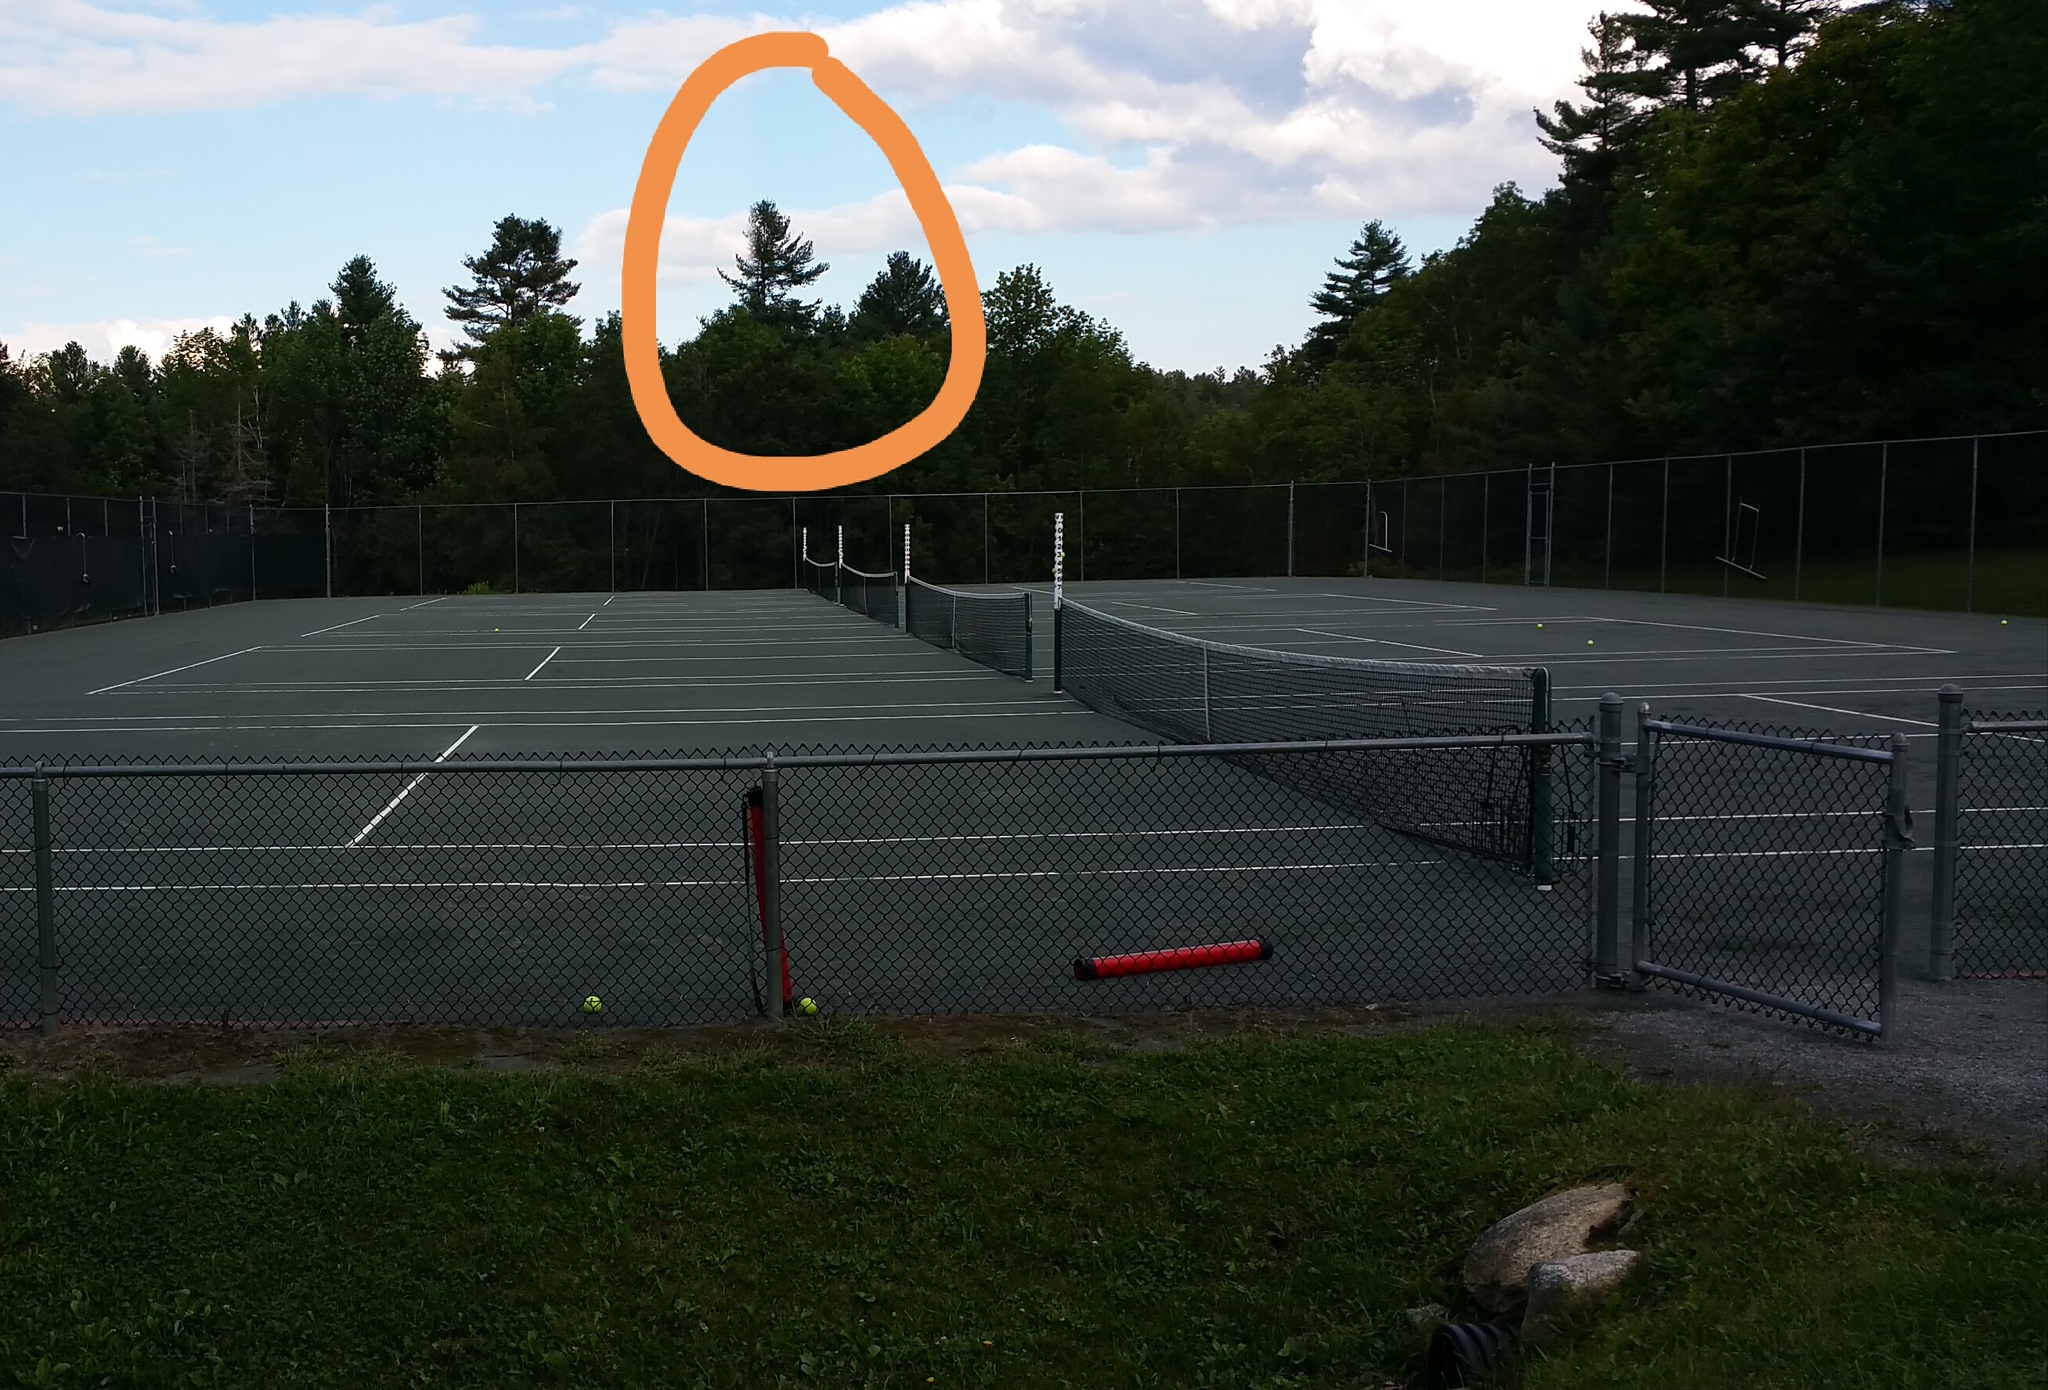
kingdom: Plantae
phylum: Tracheophyta
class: Pinopsida
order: Pinales
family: Pinaceae
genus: Pinus
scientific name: Pinus strobus
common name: Weymouth pine
